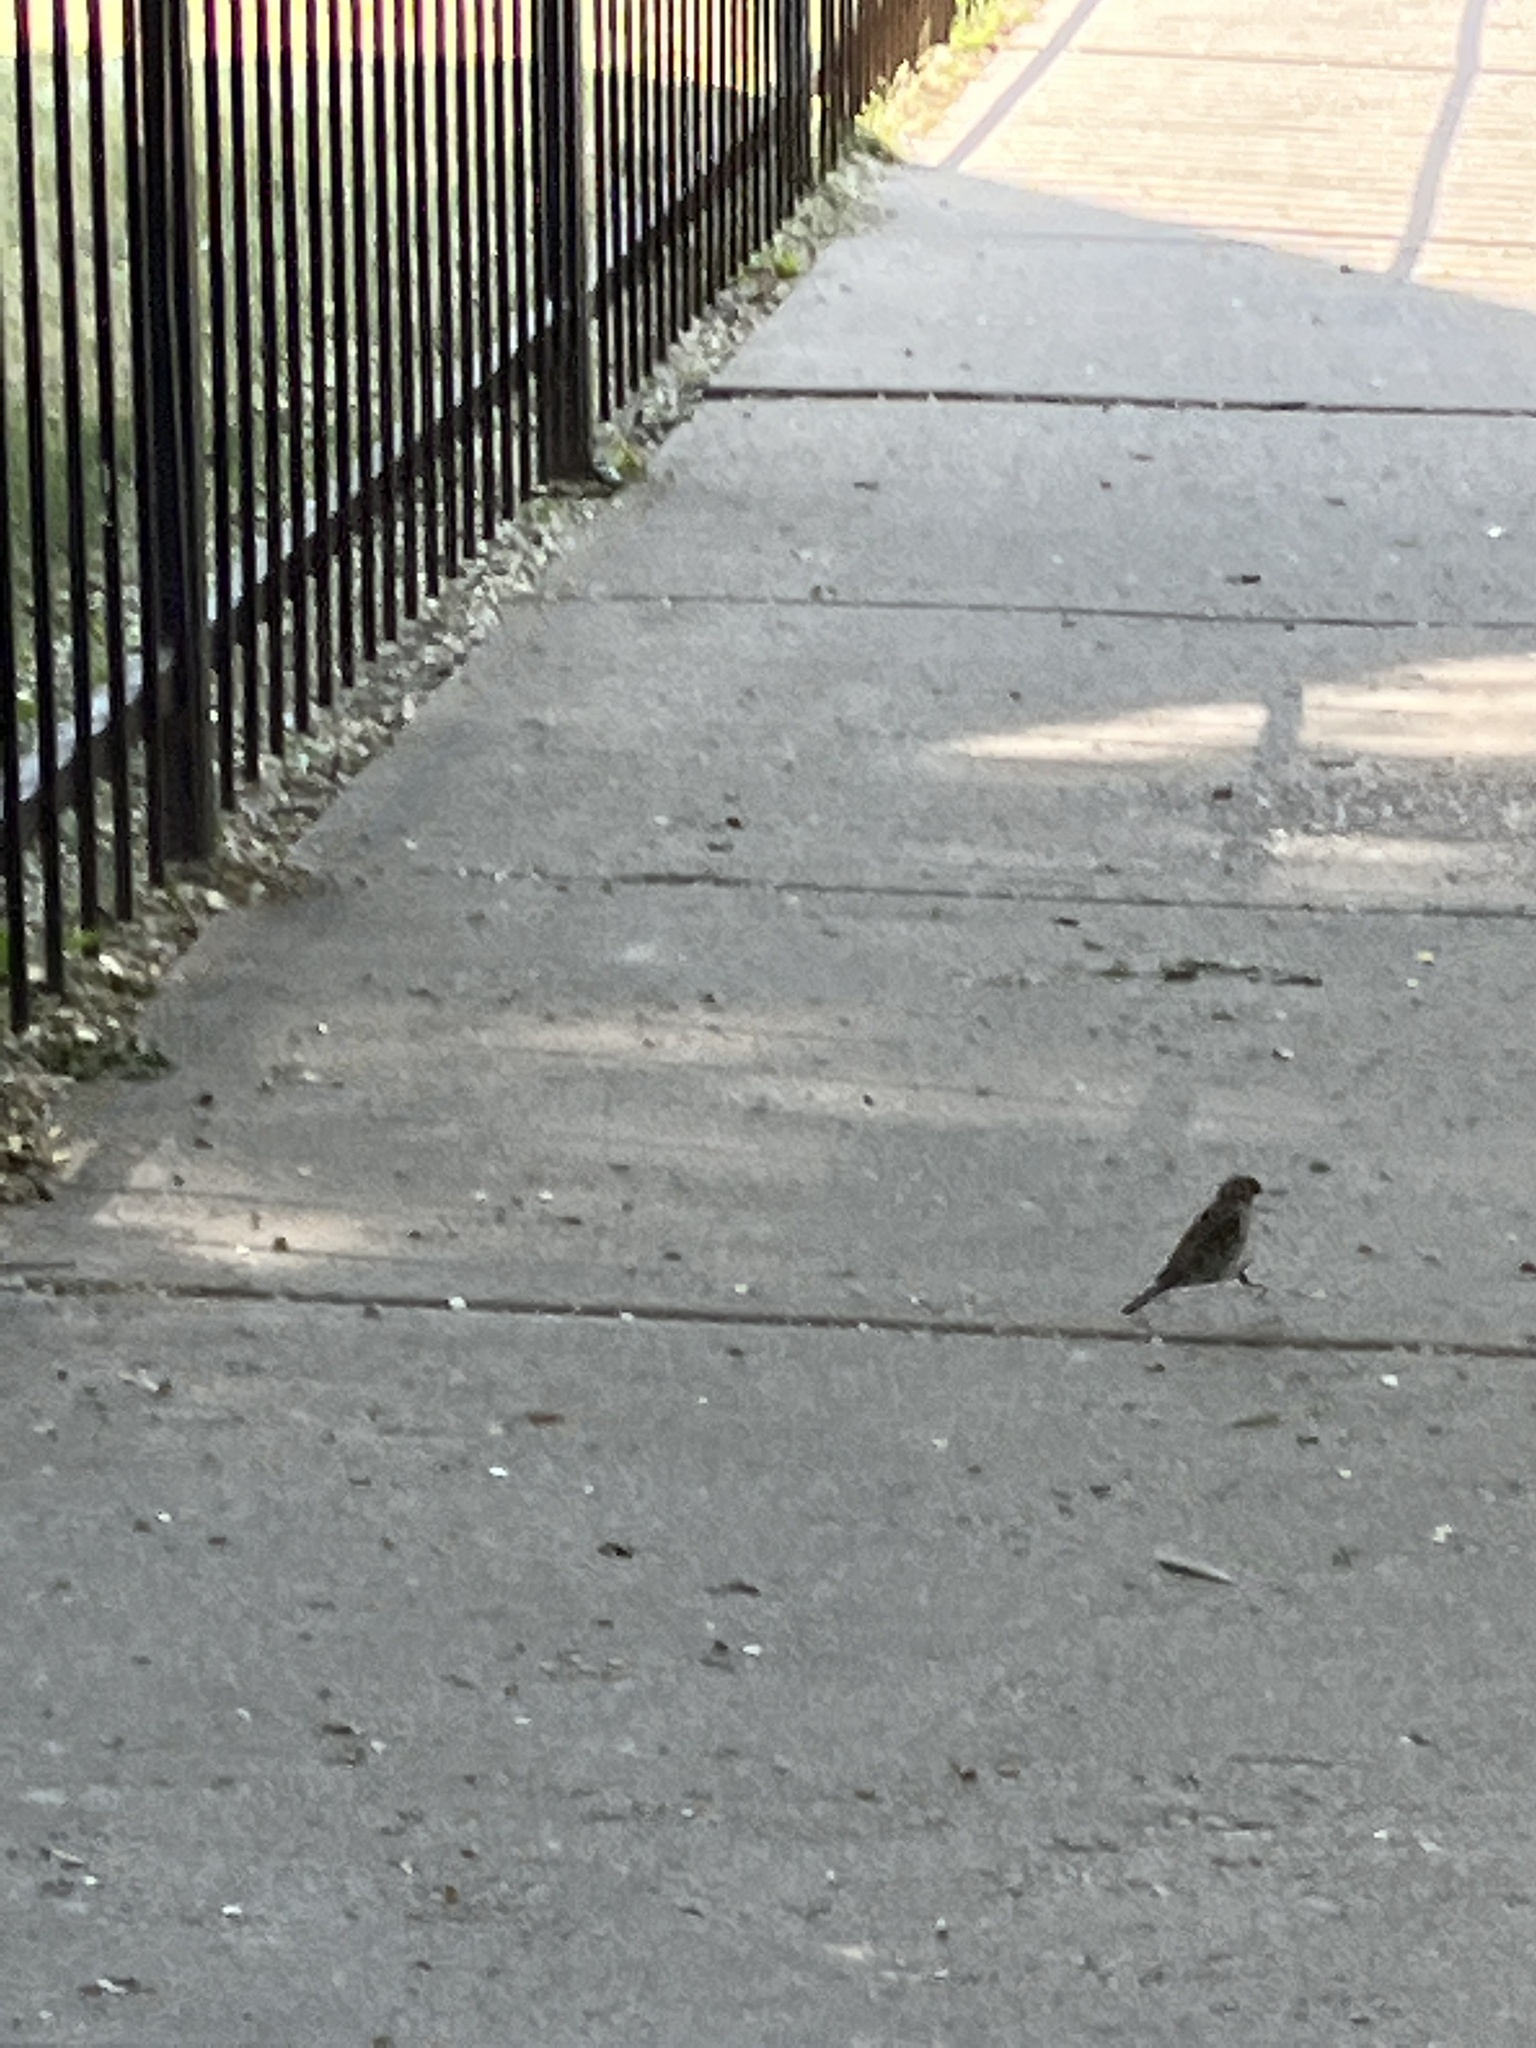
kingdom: Animalia
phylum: Chordata
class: Aves
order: Passeriformes
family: Passeridae
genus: Passer
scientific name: Passer domesticus
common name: House sparrow
